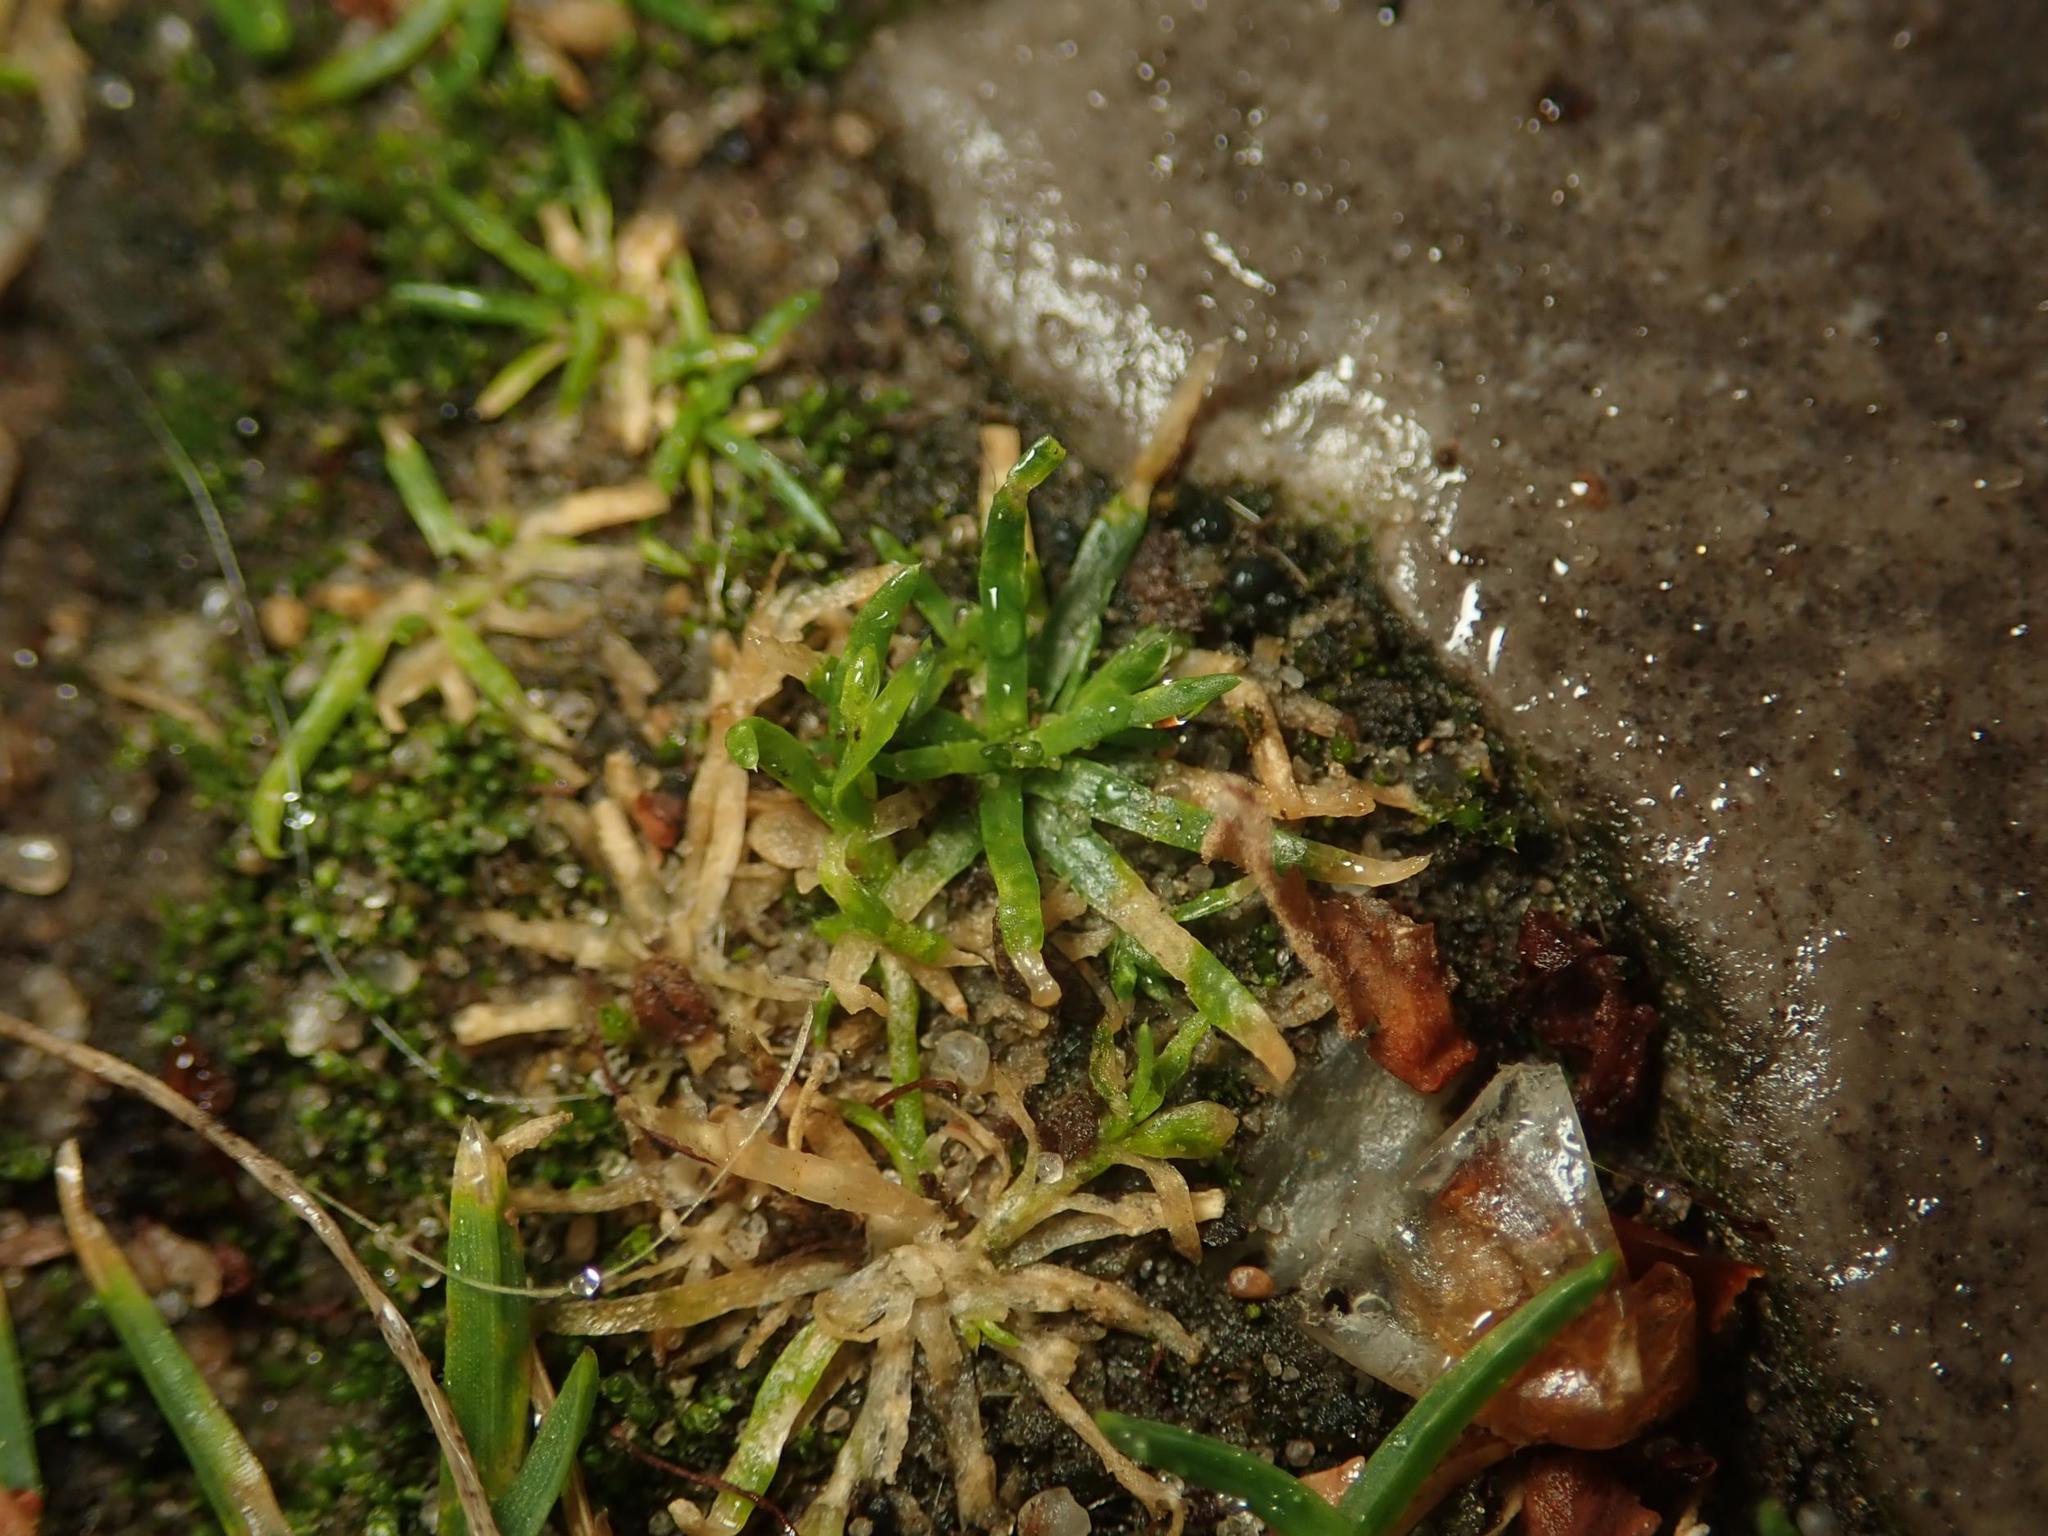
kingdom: Plantae
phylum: Tracheophyta
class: Magnoliopsida
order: Caryophyllales
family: Caryophyllaceae
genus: Sagina
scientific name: Sagina procumbens
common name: Procumbent pearlwort
